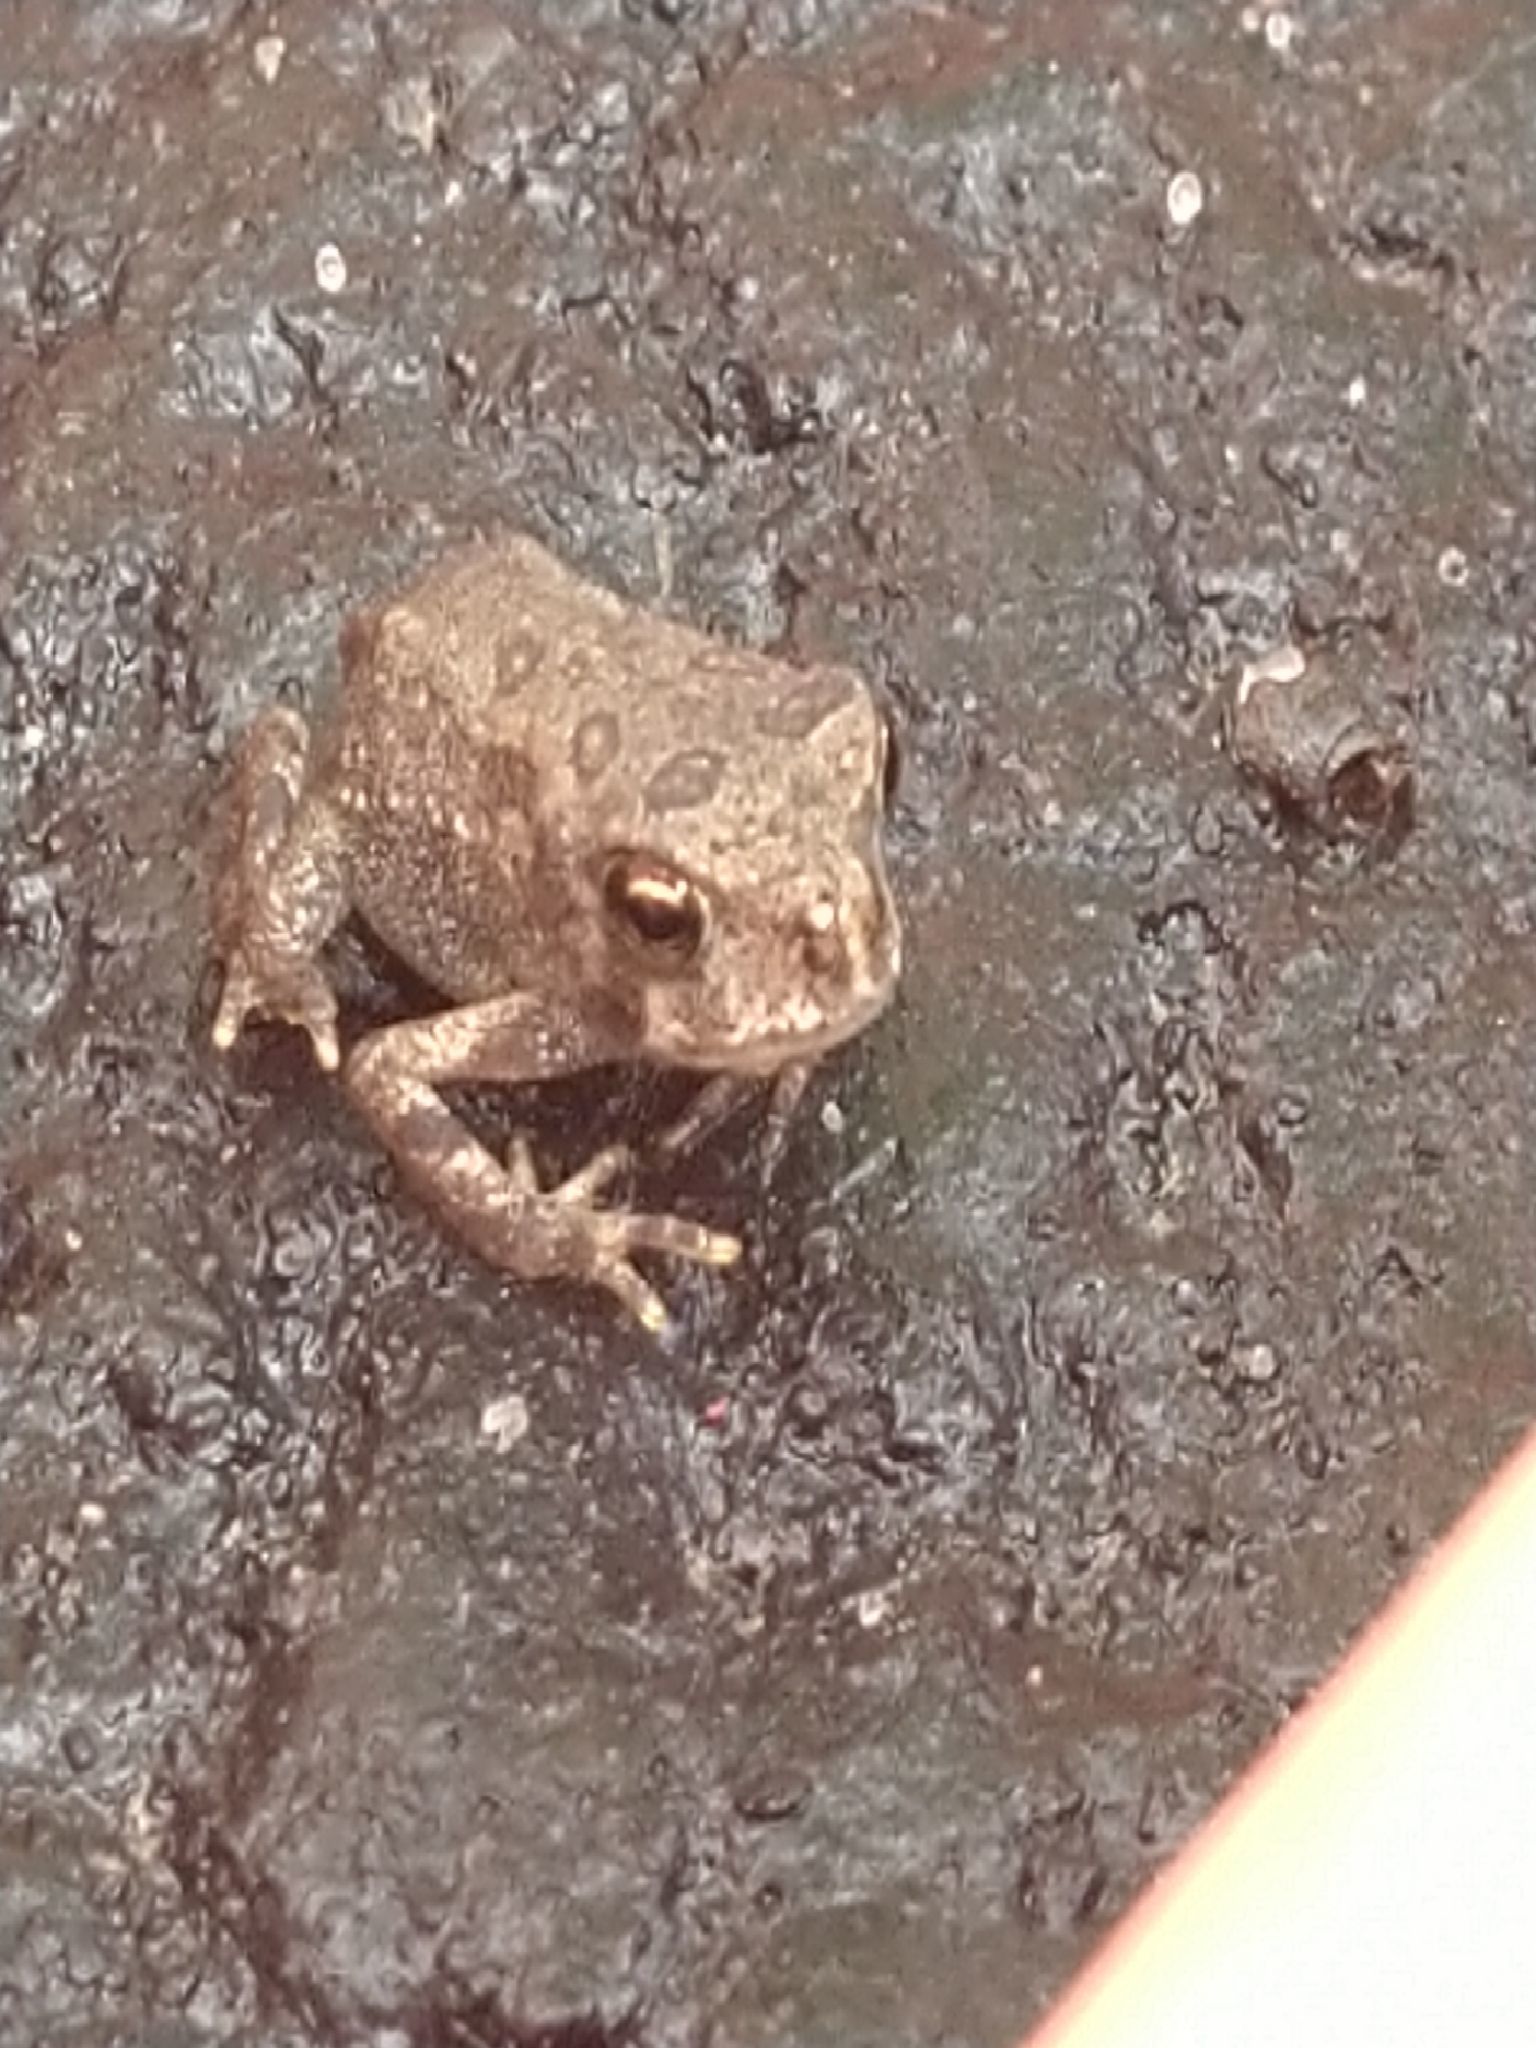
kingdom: Animalia
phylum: Chordata
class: Amphibia
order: Anura
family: Bufonidae
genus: Anaxyrus
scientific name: Anaxyrus americanus
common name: American toad
